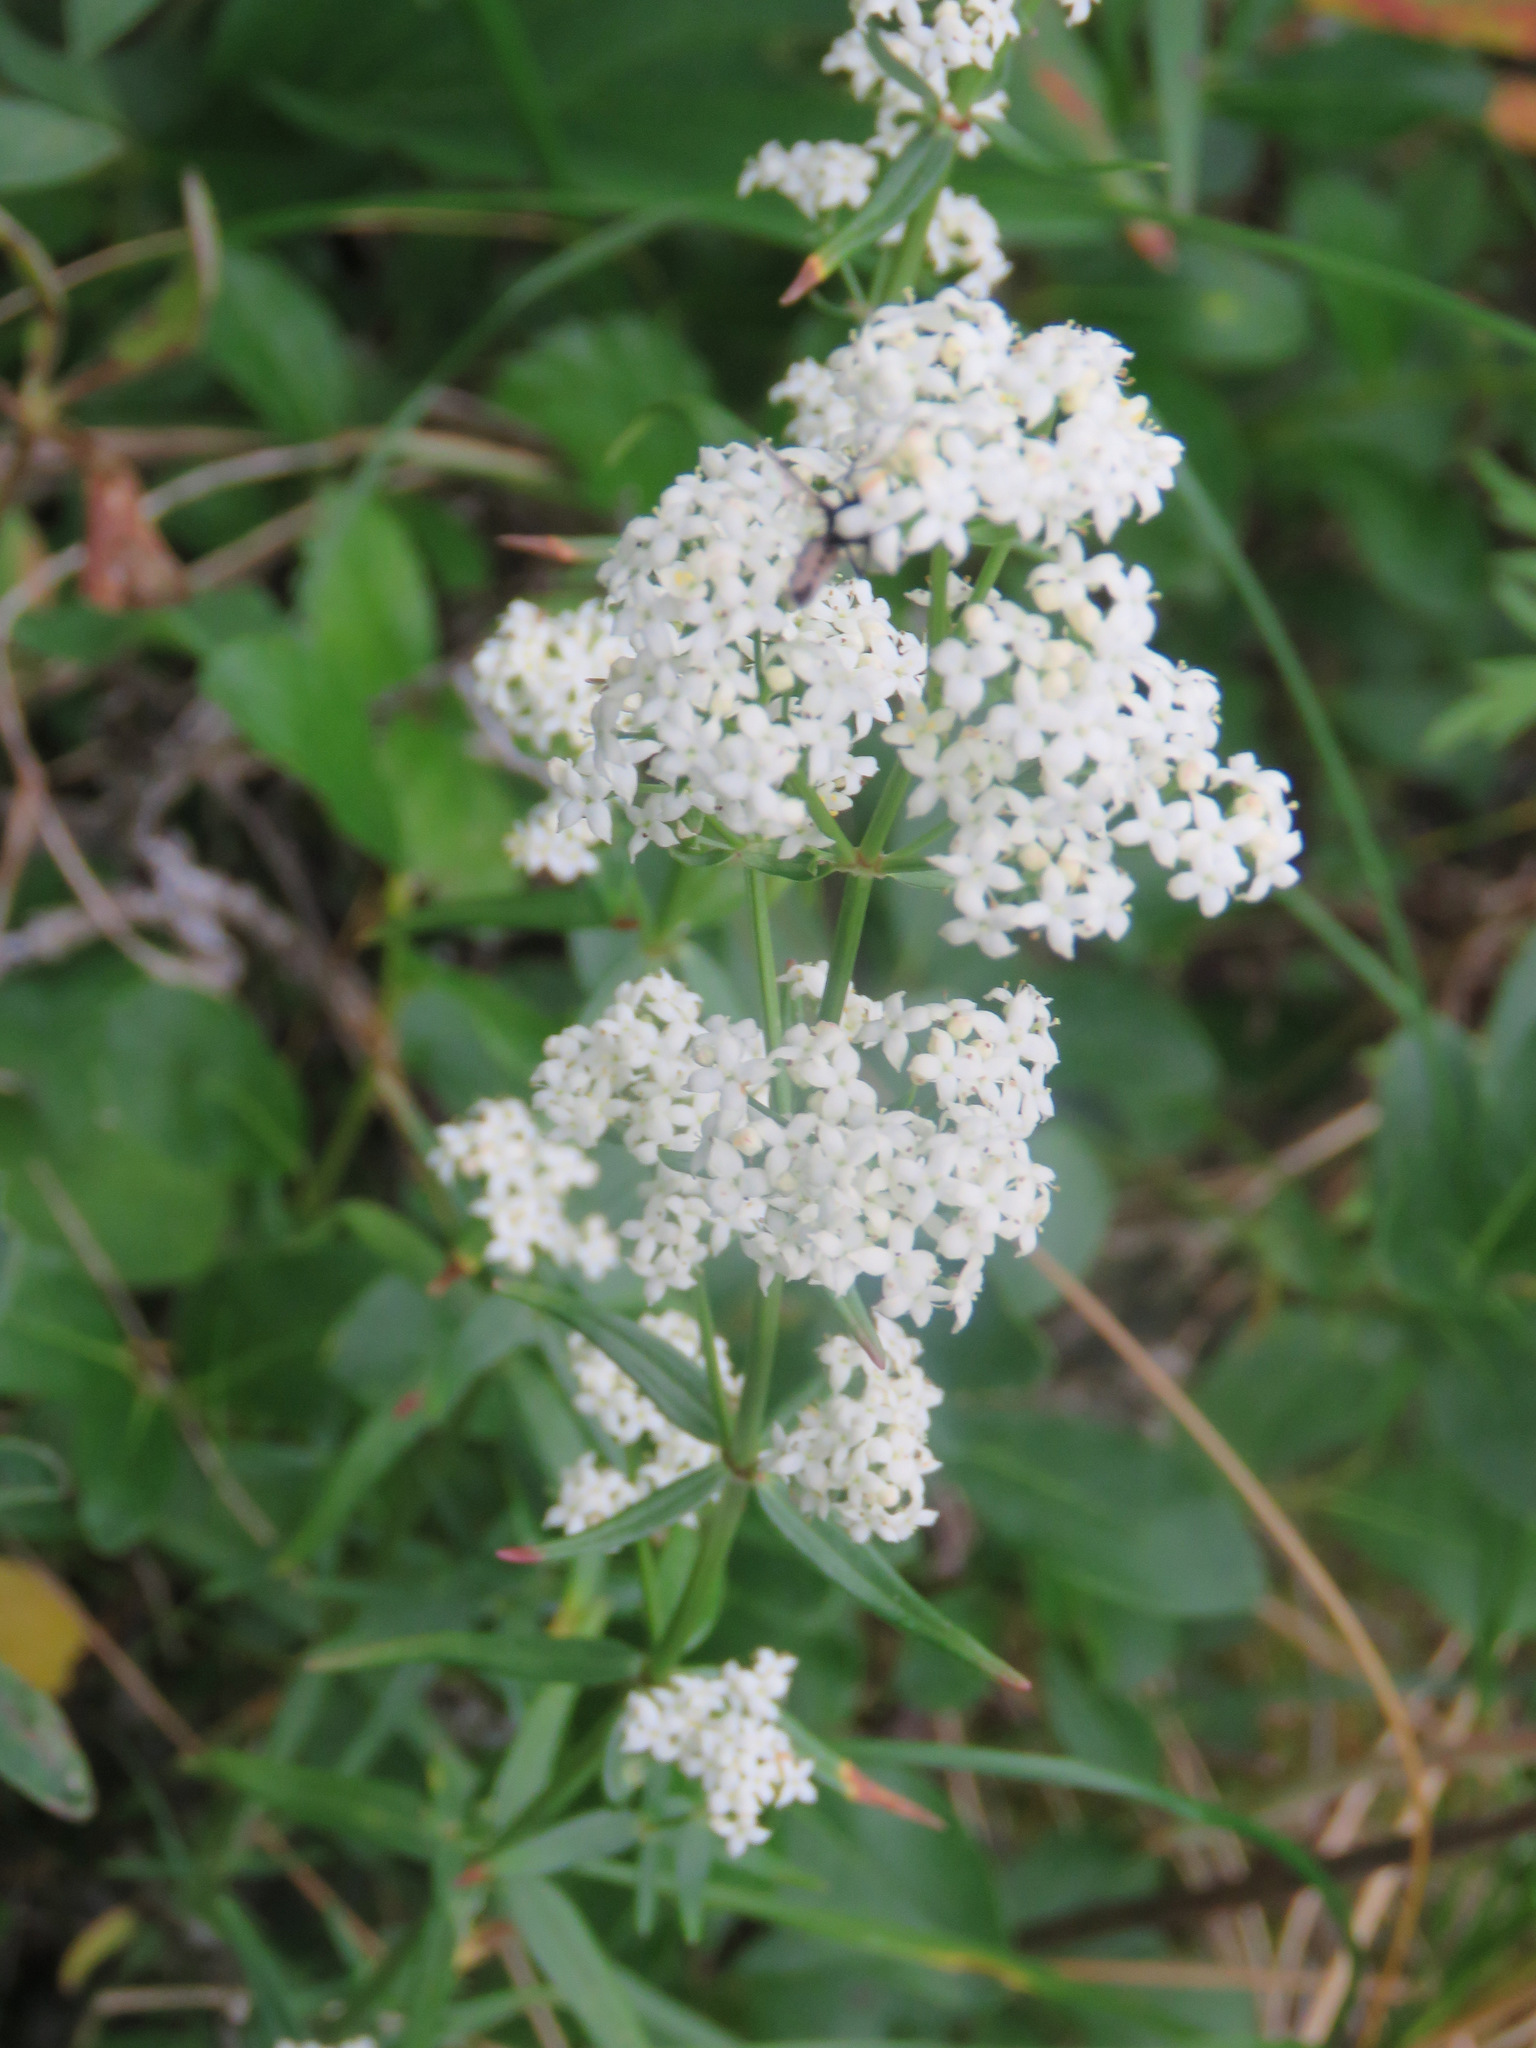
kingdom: Plantae
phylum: Tracheophyta
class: Magnoliopsida
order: Gentianales
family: Rubiaceae
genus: Galium
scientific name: Galium boreale
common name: Northern bedstraw
